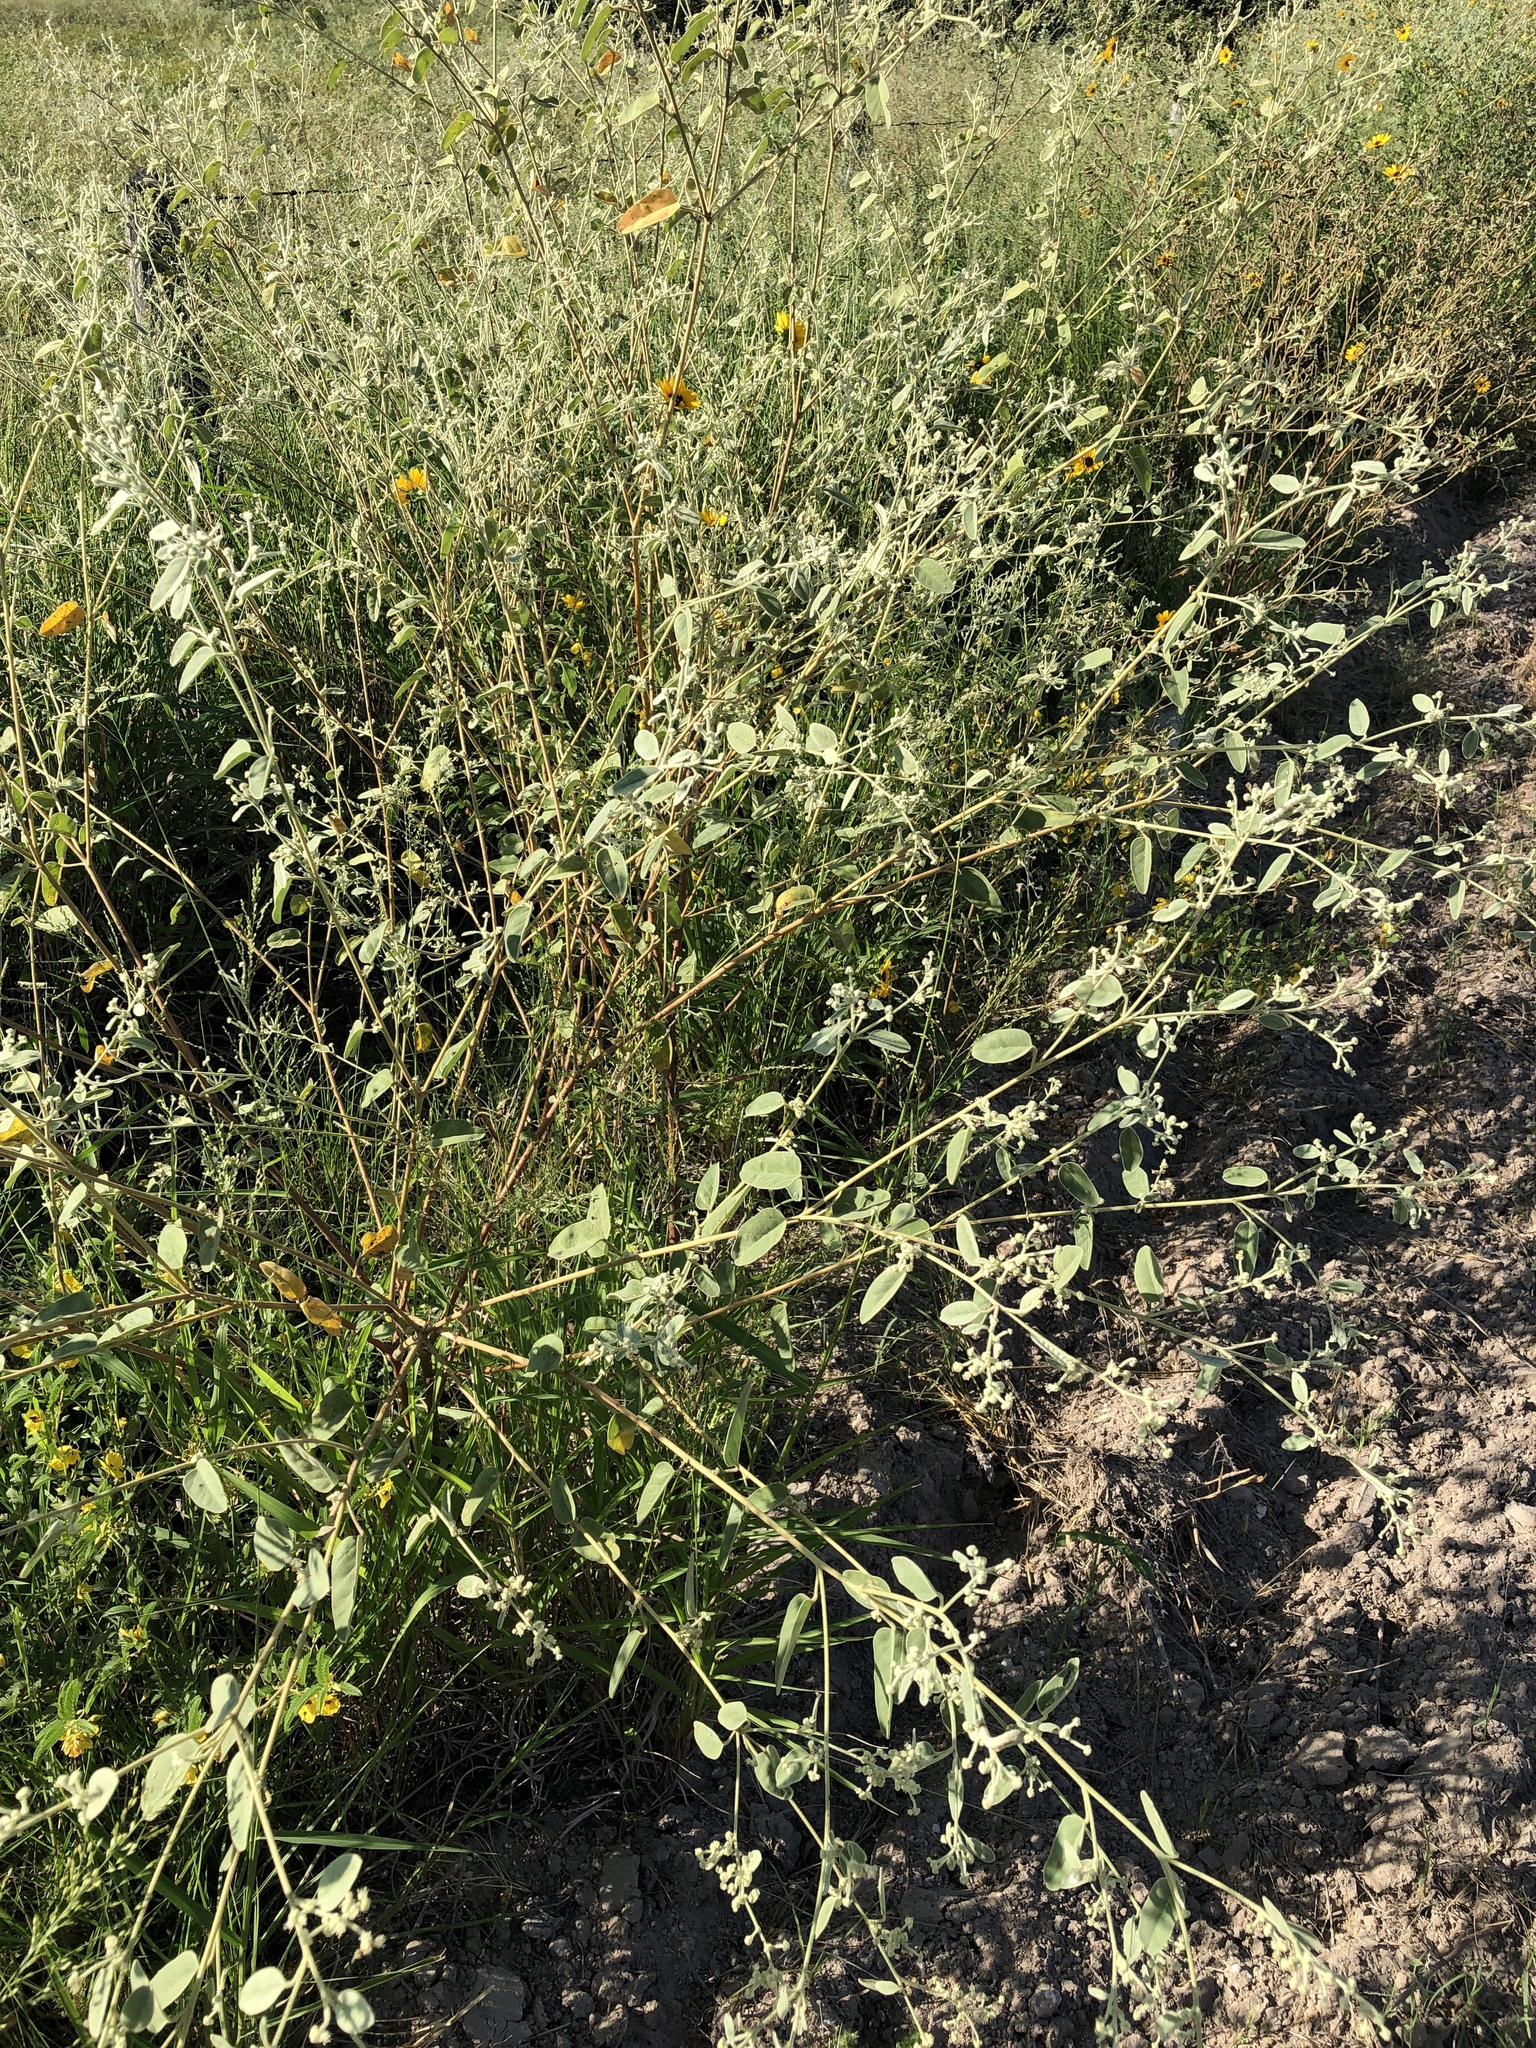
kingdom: Plantae
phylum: Tracheophyta
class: Magnoliopsida
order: Malpighiales
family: Euphorbiaceae
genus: Croton
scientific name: Croton parksii
